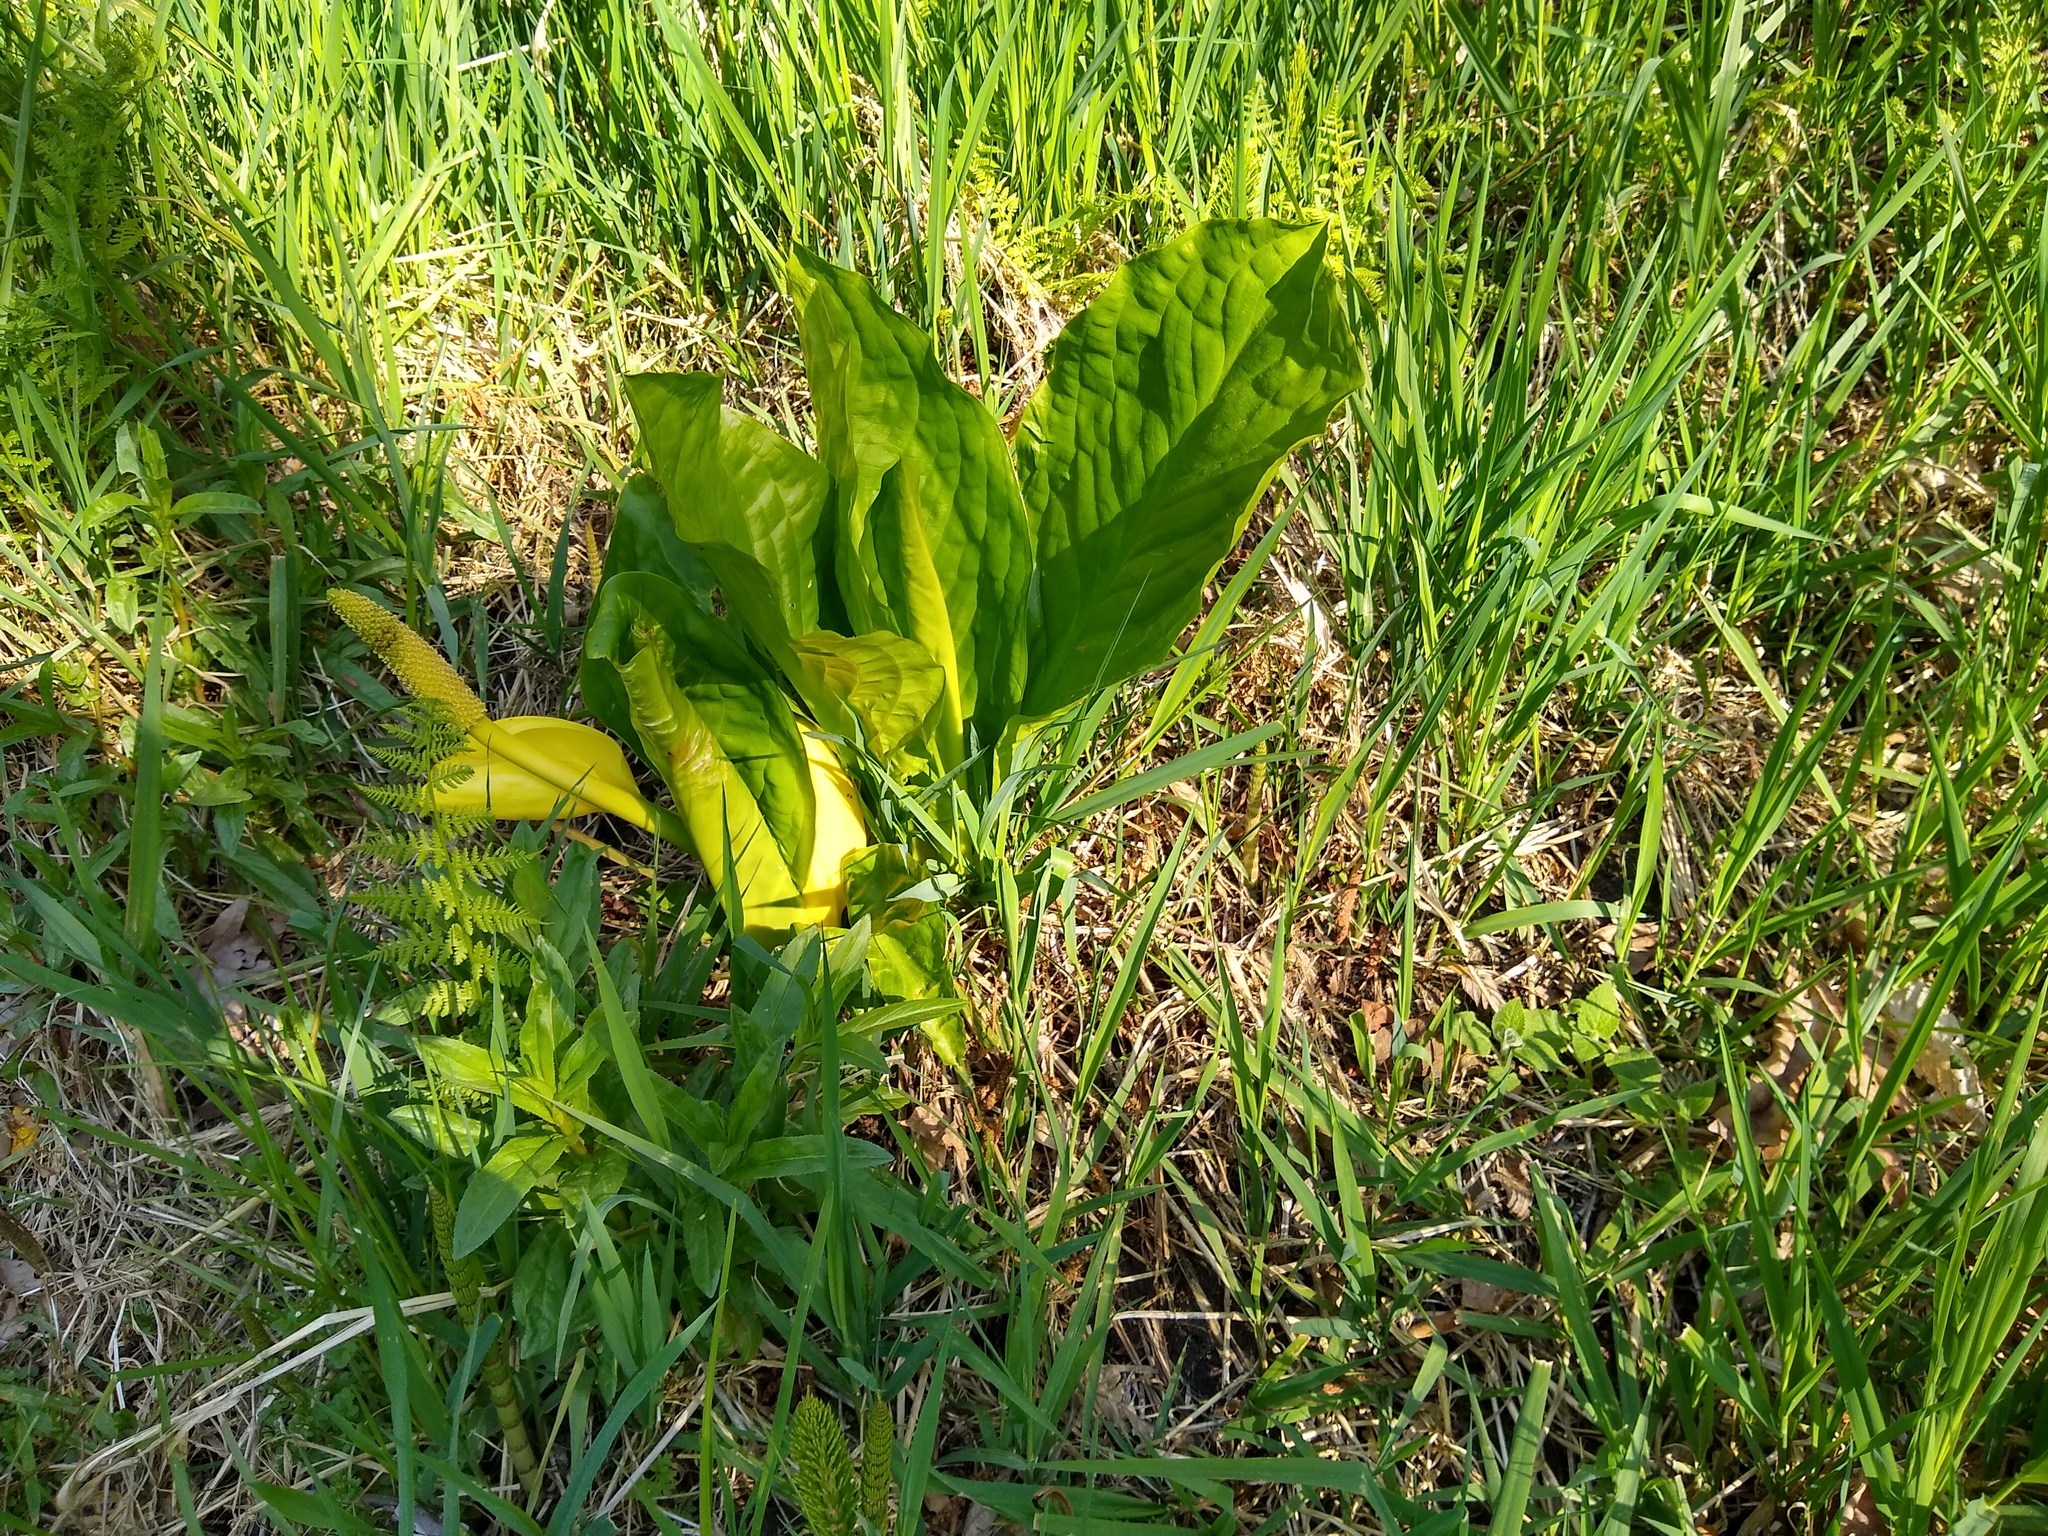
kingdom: Plantae
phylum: Tracheophyta
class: Liliopsida
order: Alismatales
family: Araceae
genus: Lysichiton
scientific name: Lysichiton americanus
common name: American skunk cabbage
